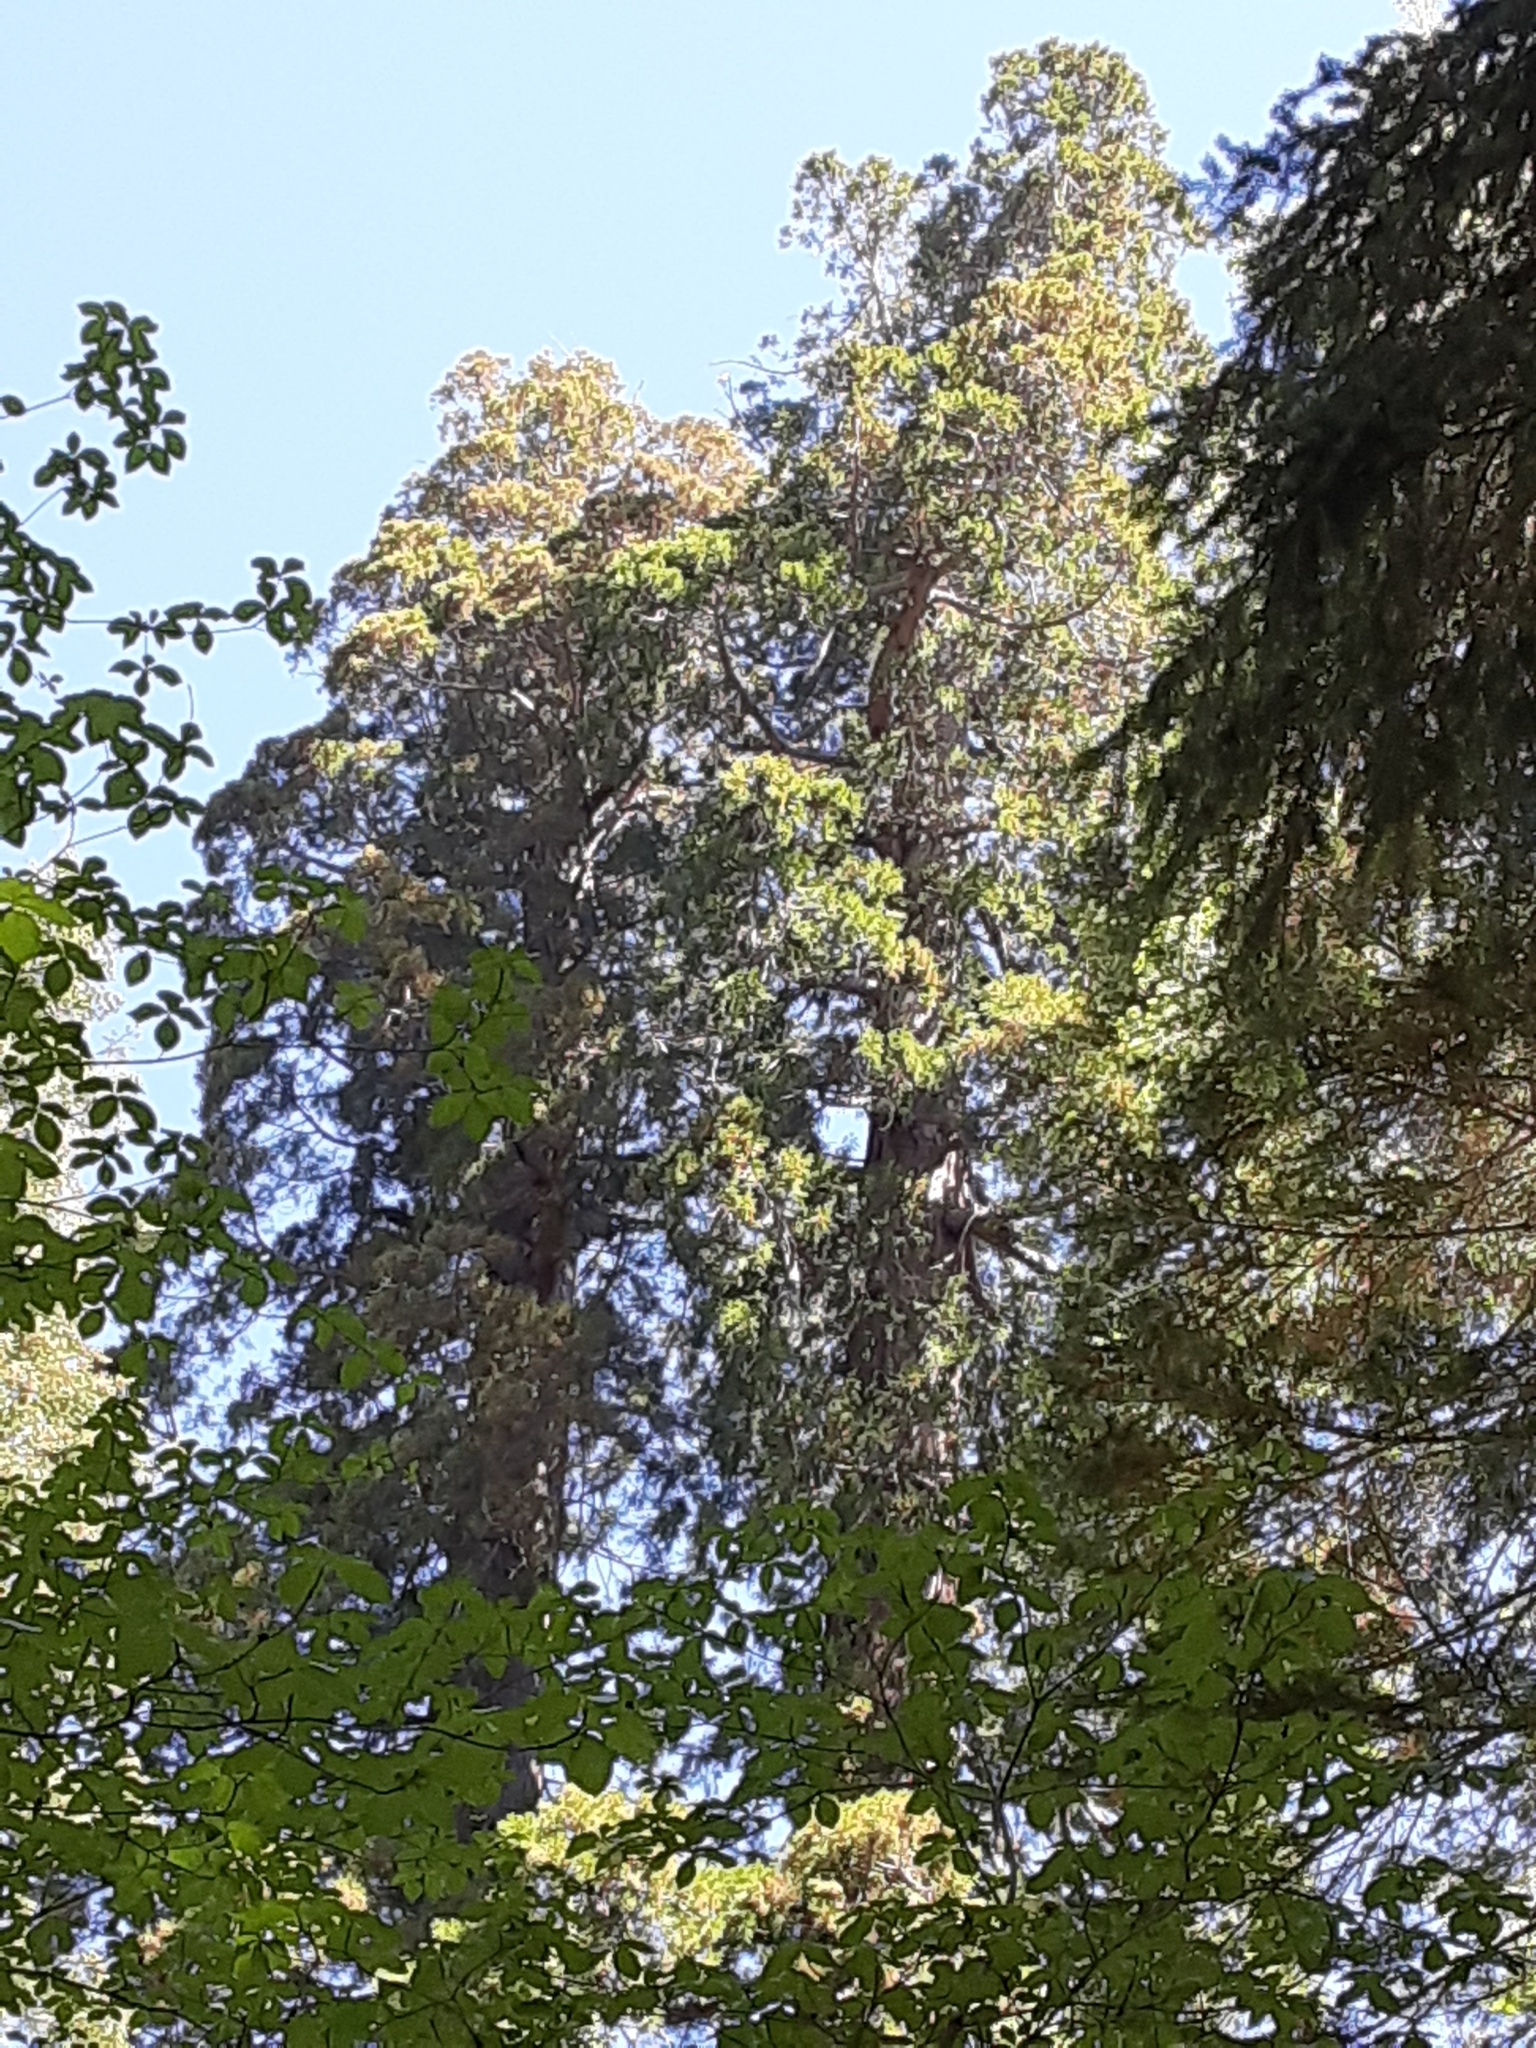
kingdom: Plantae
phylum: Tracheophyta
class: Pinopsida
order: Pinales
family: Cupressaceae
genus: Sequoiadendron
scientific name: Sequoiadendron giganteum
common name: Wellingtonia
